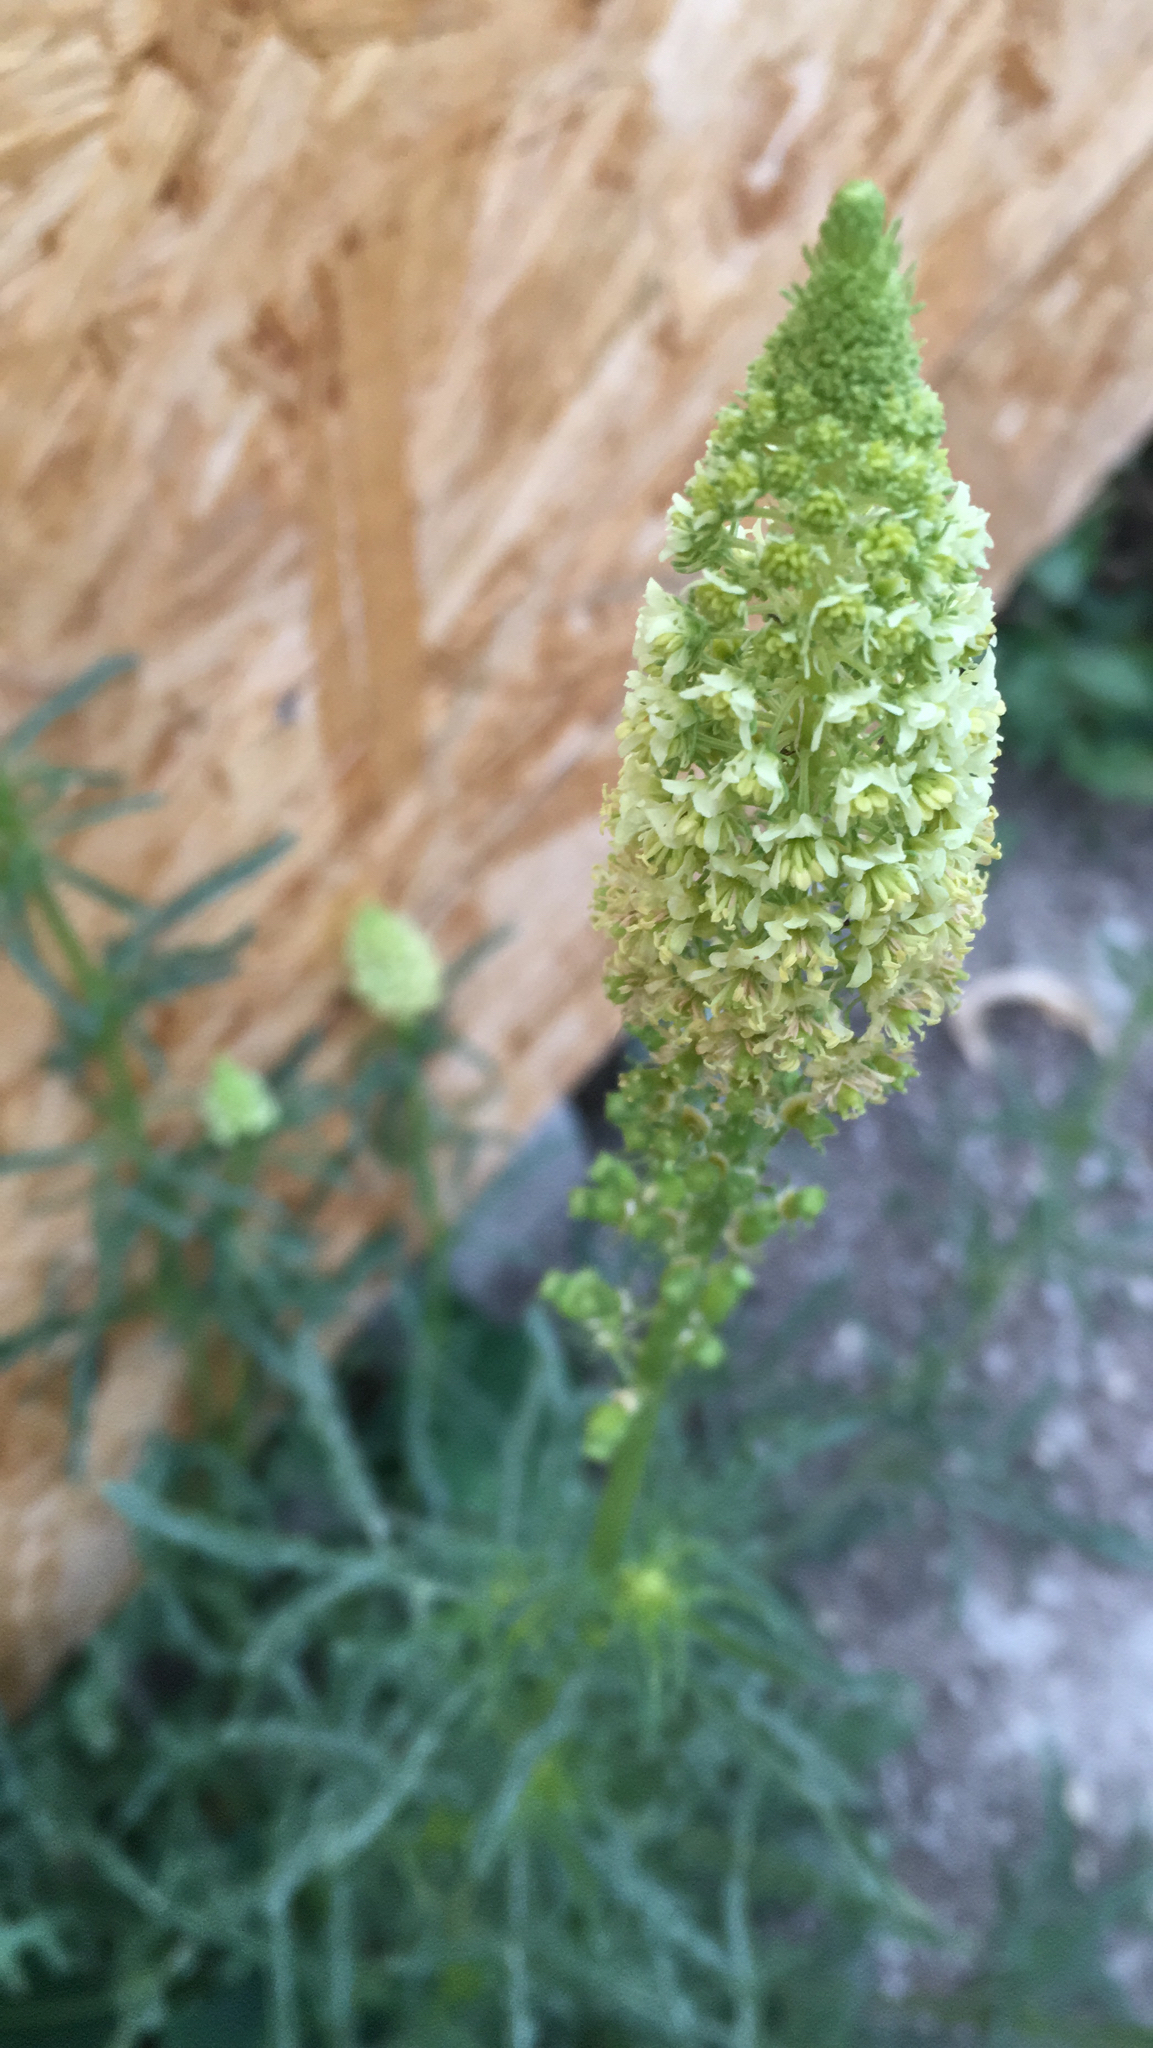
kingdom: Plantae
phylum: Tracheophyta
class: Magnoliopsida
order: Brassicales
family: Resedaceae
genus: Reseda
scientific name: Reseda lutea
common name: Wild mignonette
